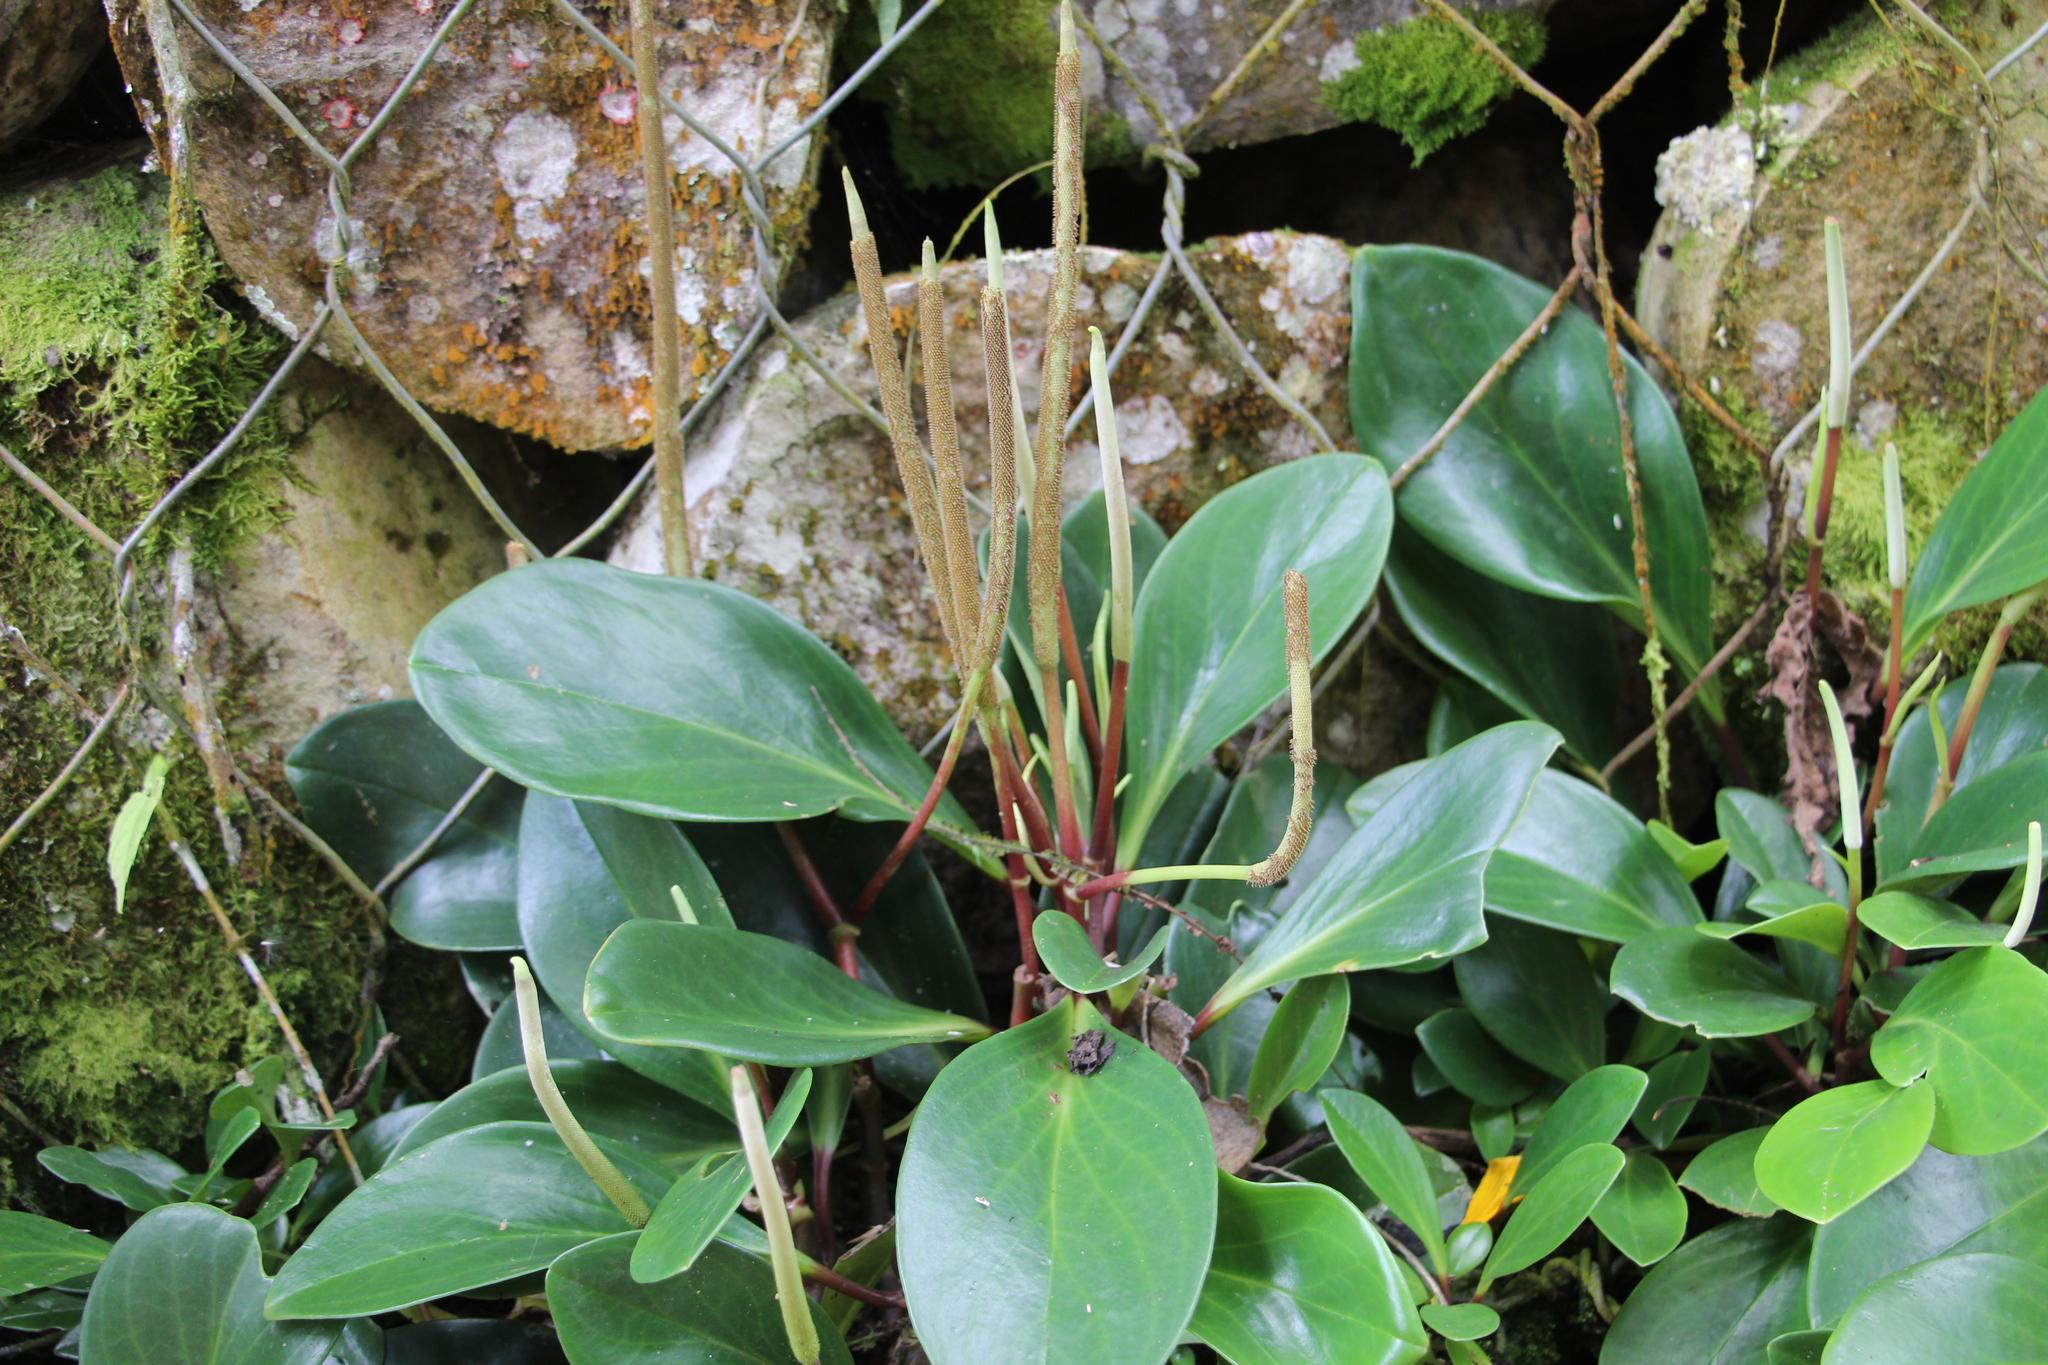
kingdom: Plantae
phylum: Tracheophyta
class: Magnoliopsida
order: Piperales
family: Piperaceae
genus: Peperomia
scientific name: Peperomia obtusifolia
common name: Baby rubberplant
